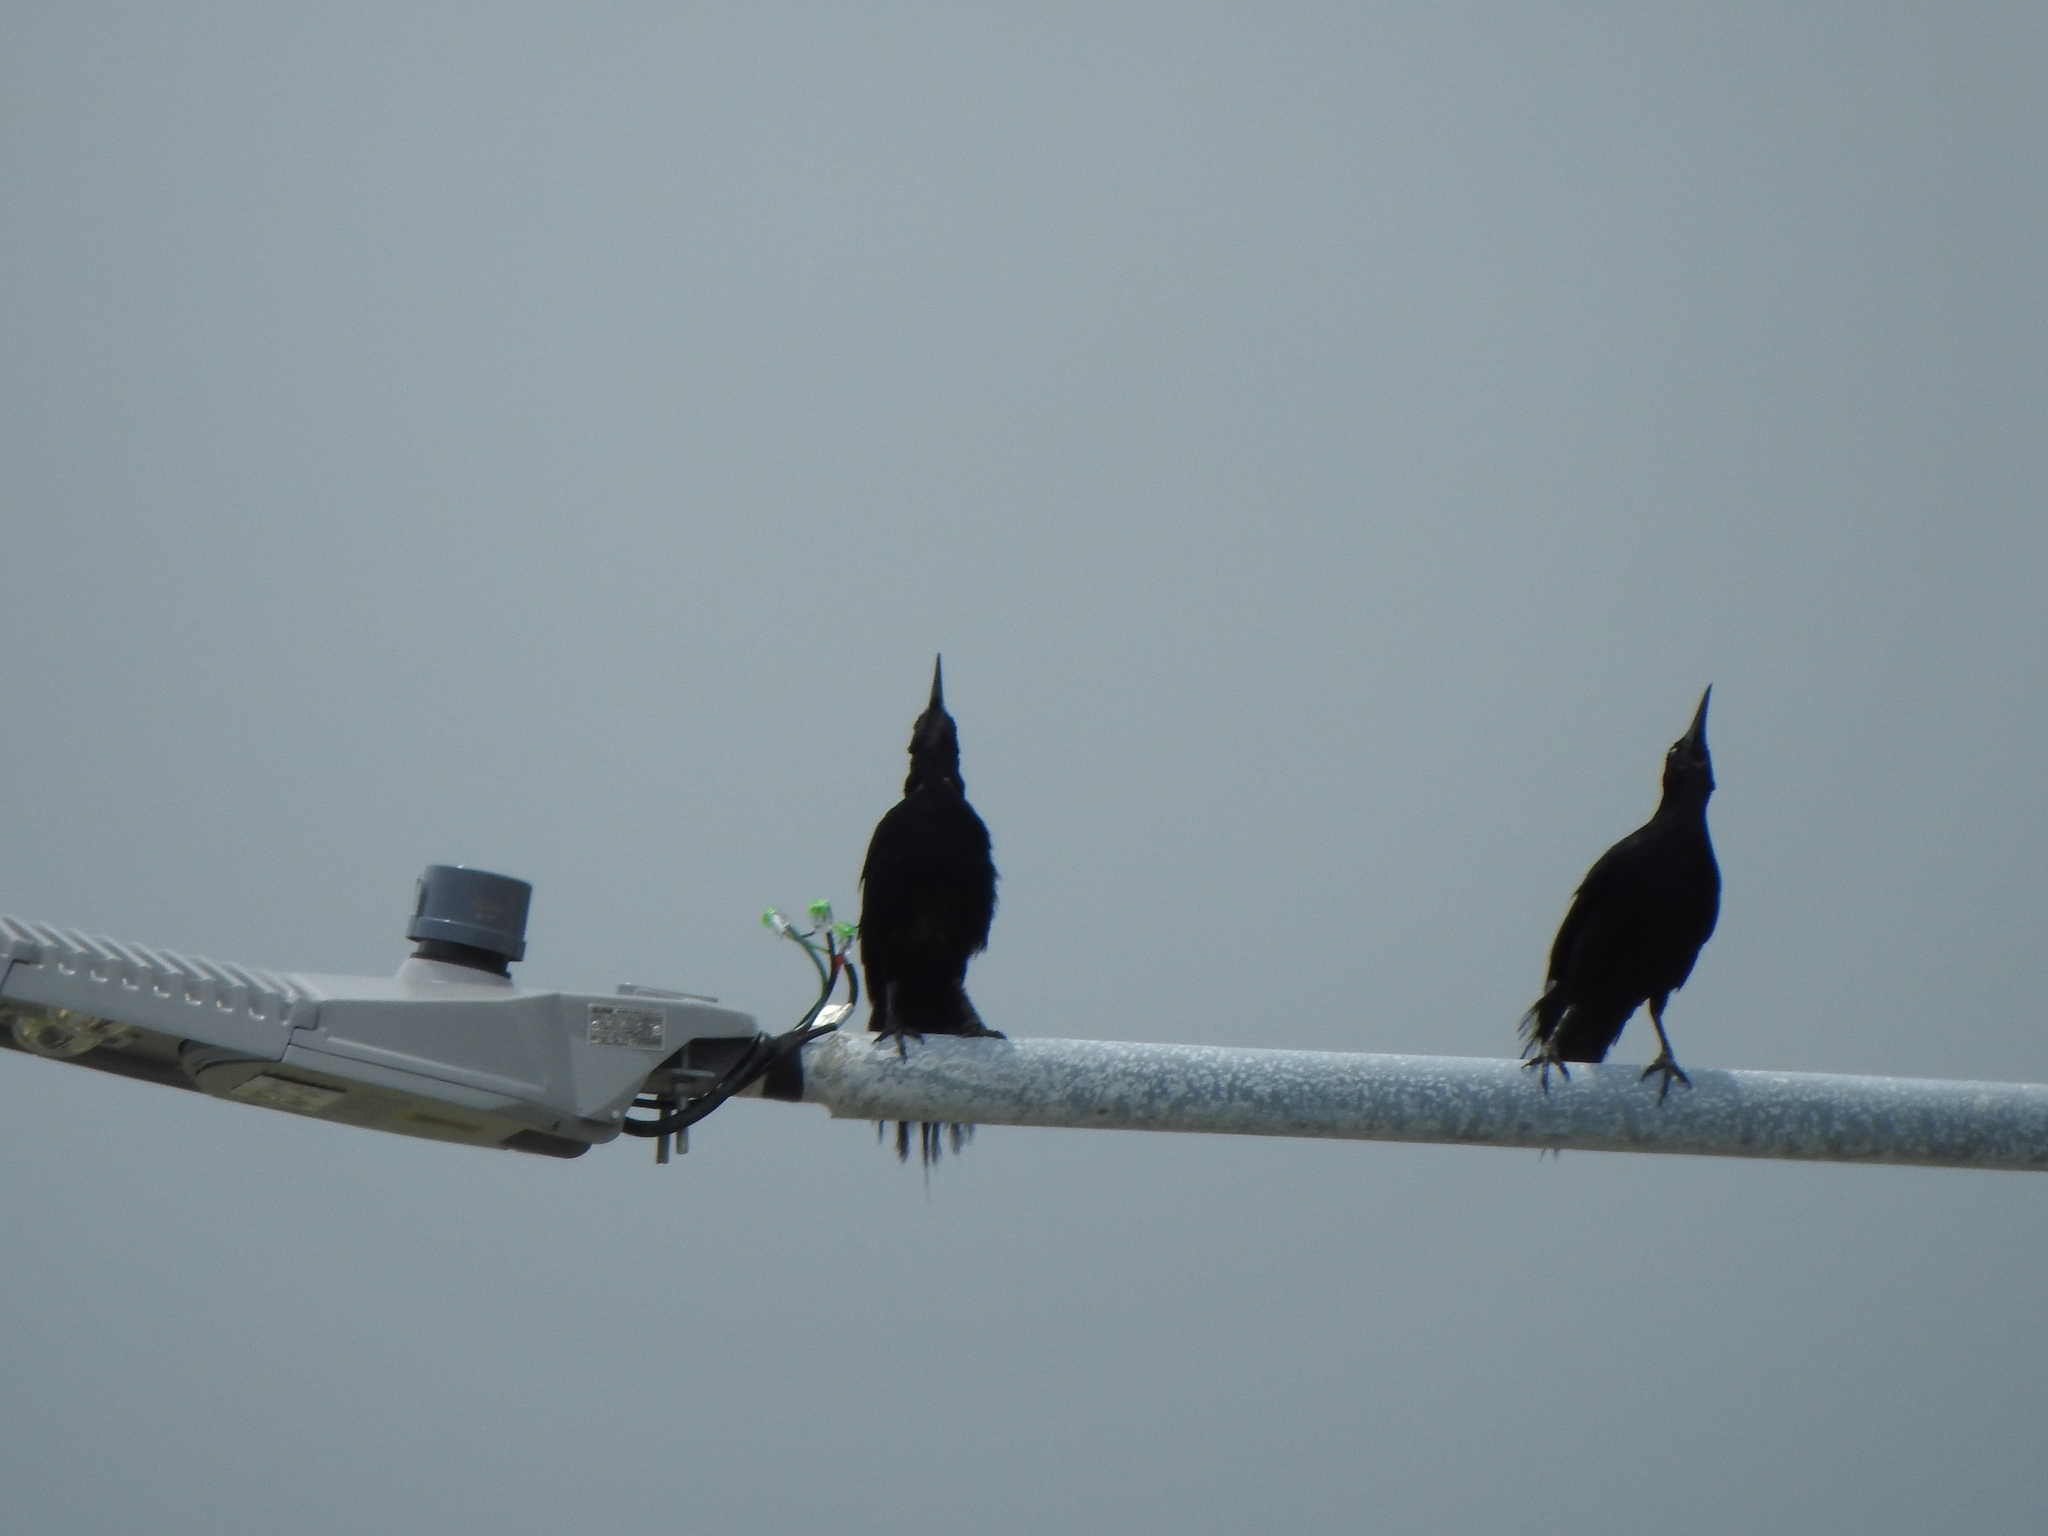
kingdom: Animalia
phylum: Chordata
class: Aves
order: Passeriformes
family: Icteridae
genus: Quiscalus
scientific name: Quiscalus mexicanus
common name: Great-tailed grackle
